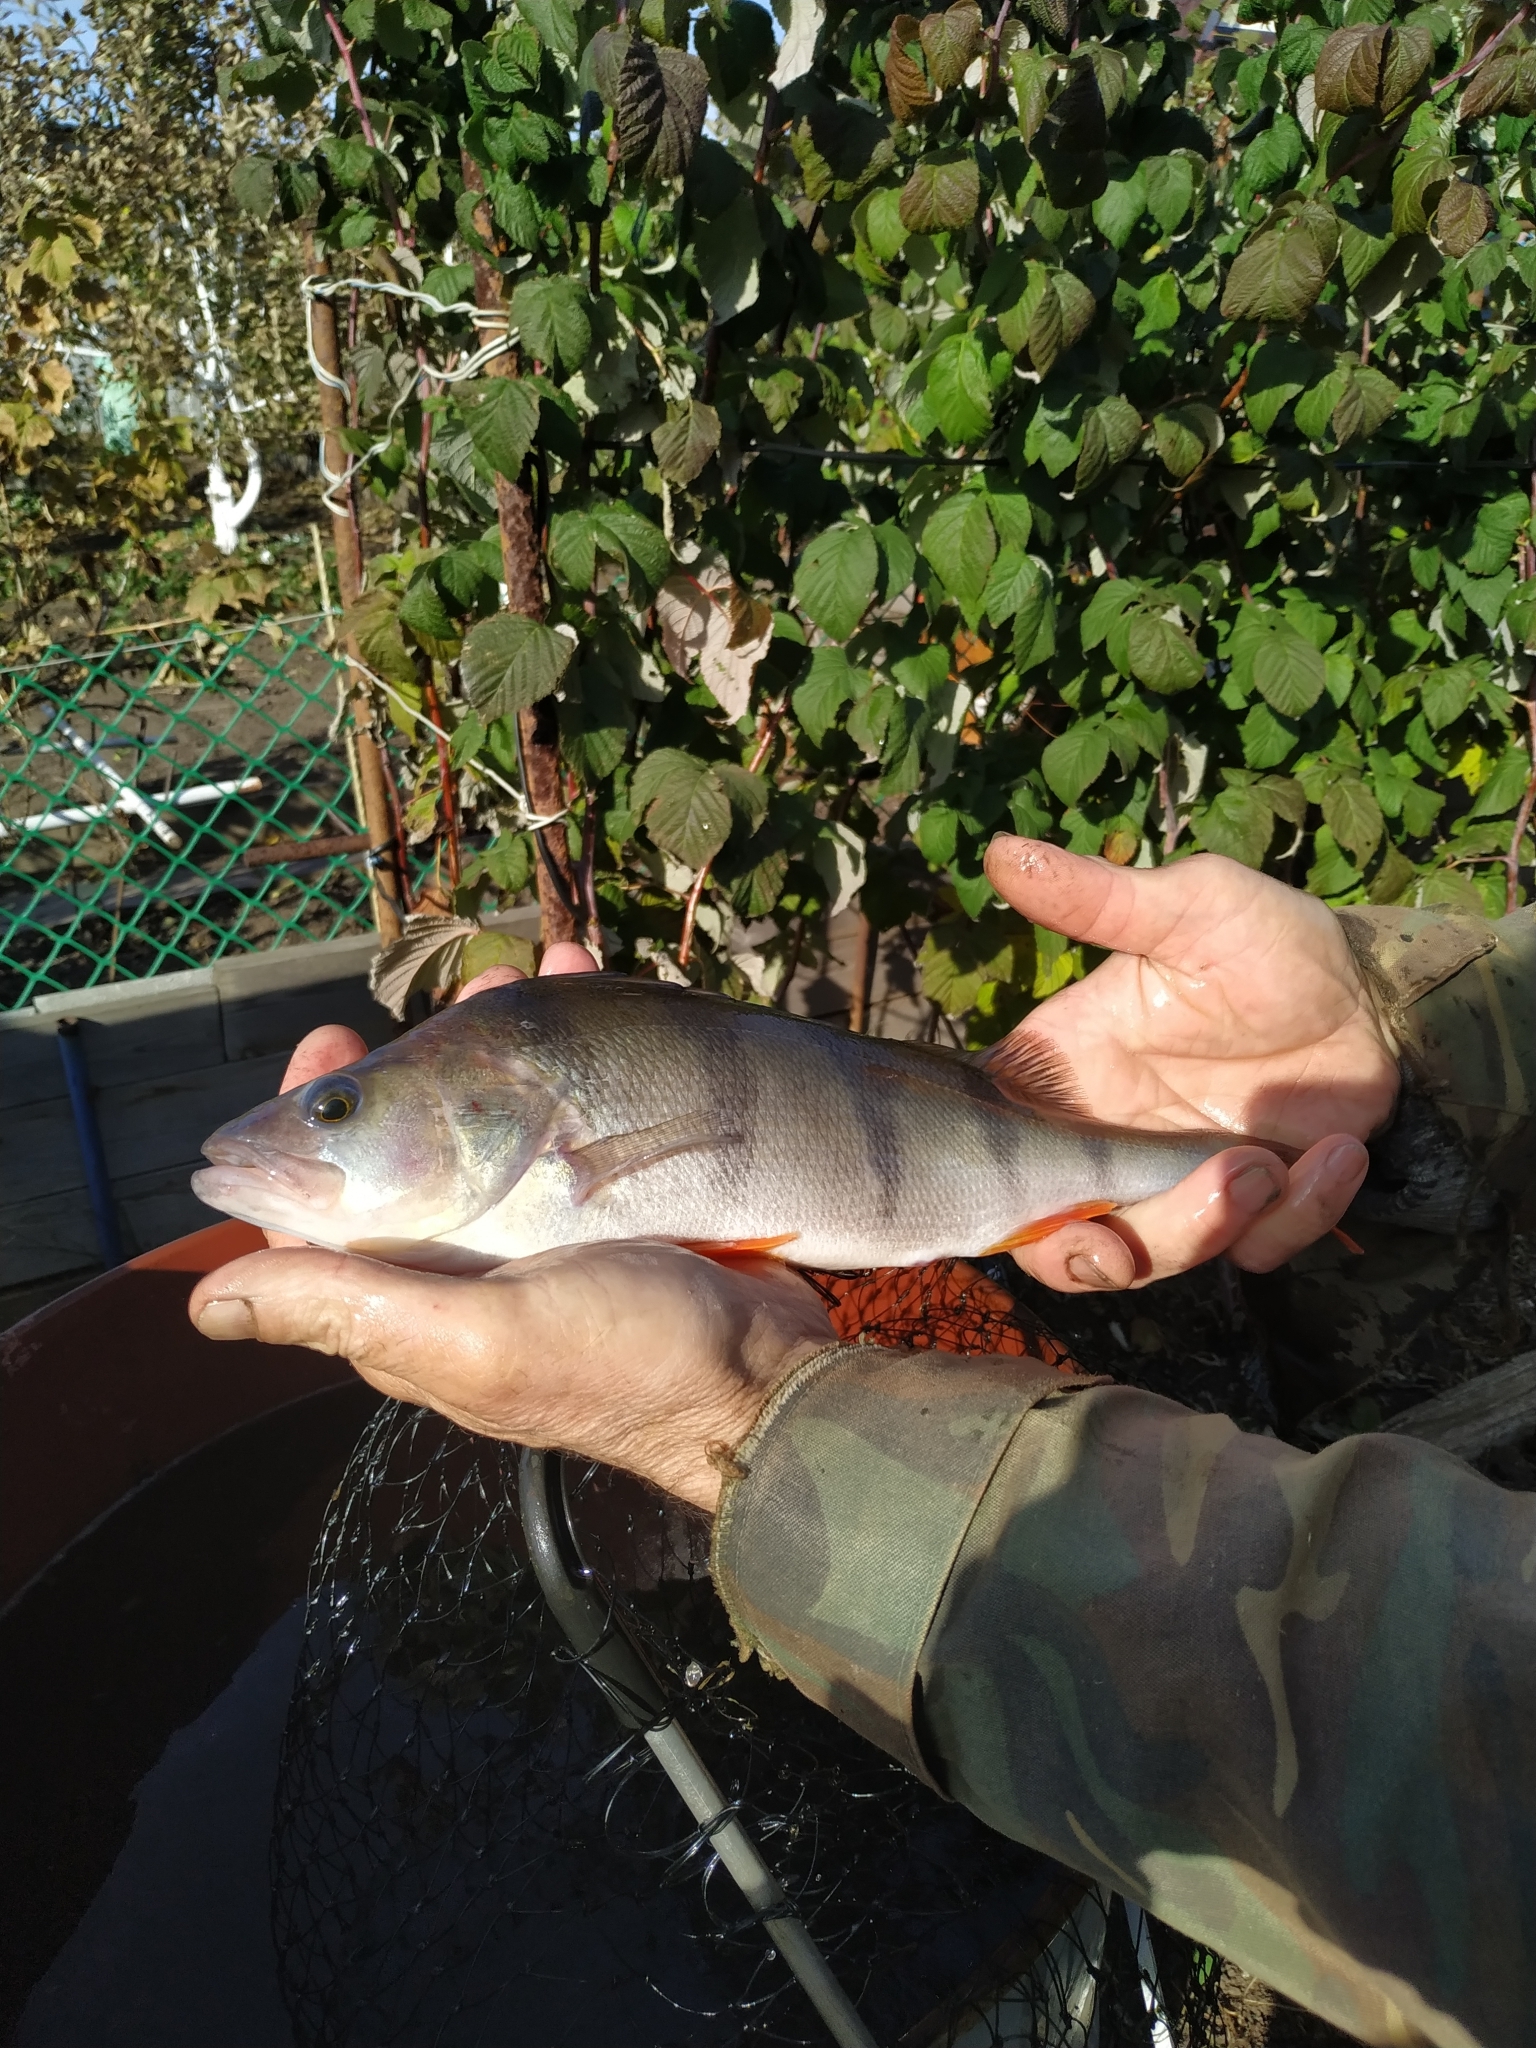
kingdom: Animalia
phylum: Chordata
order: Perciformes
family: Percidae
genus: Perca
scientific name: Perca fluviatilis
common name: Perch
